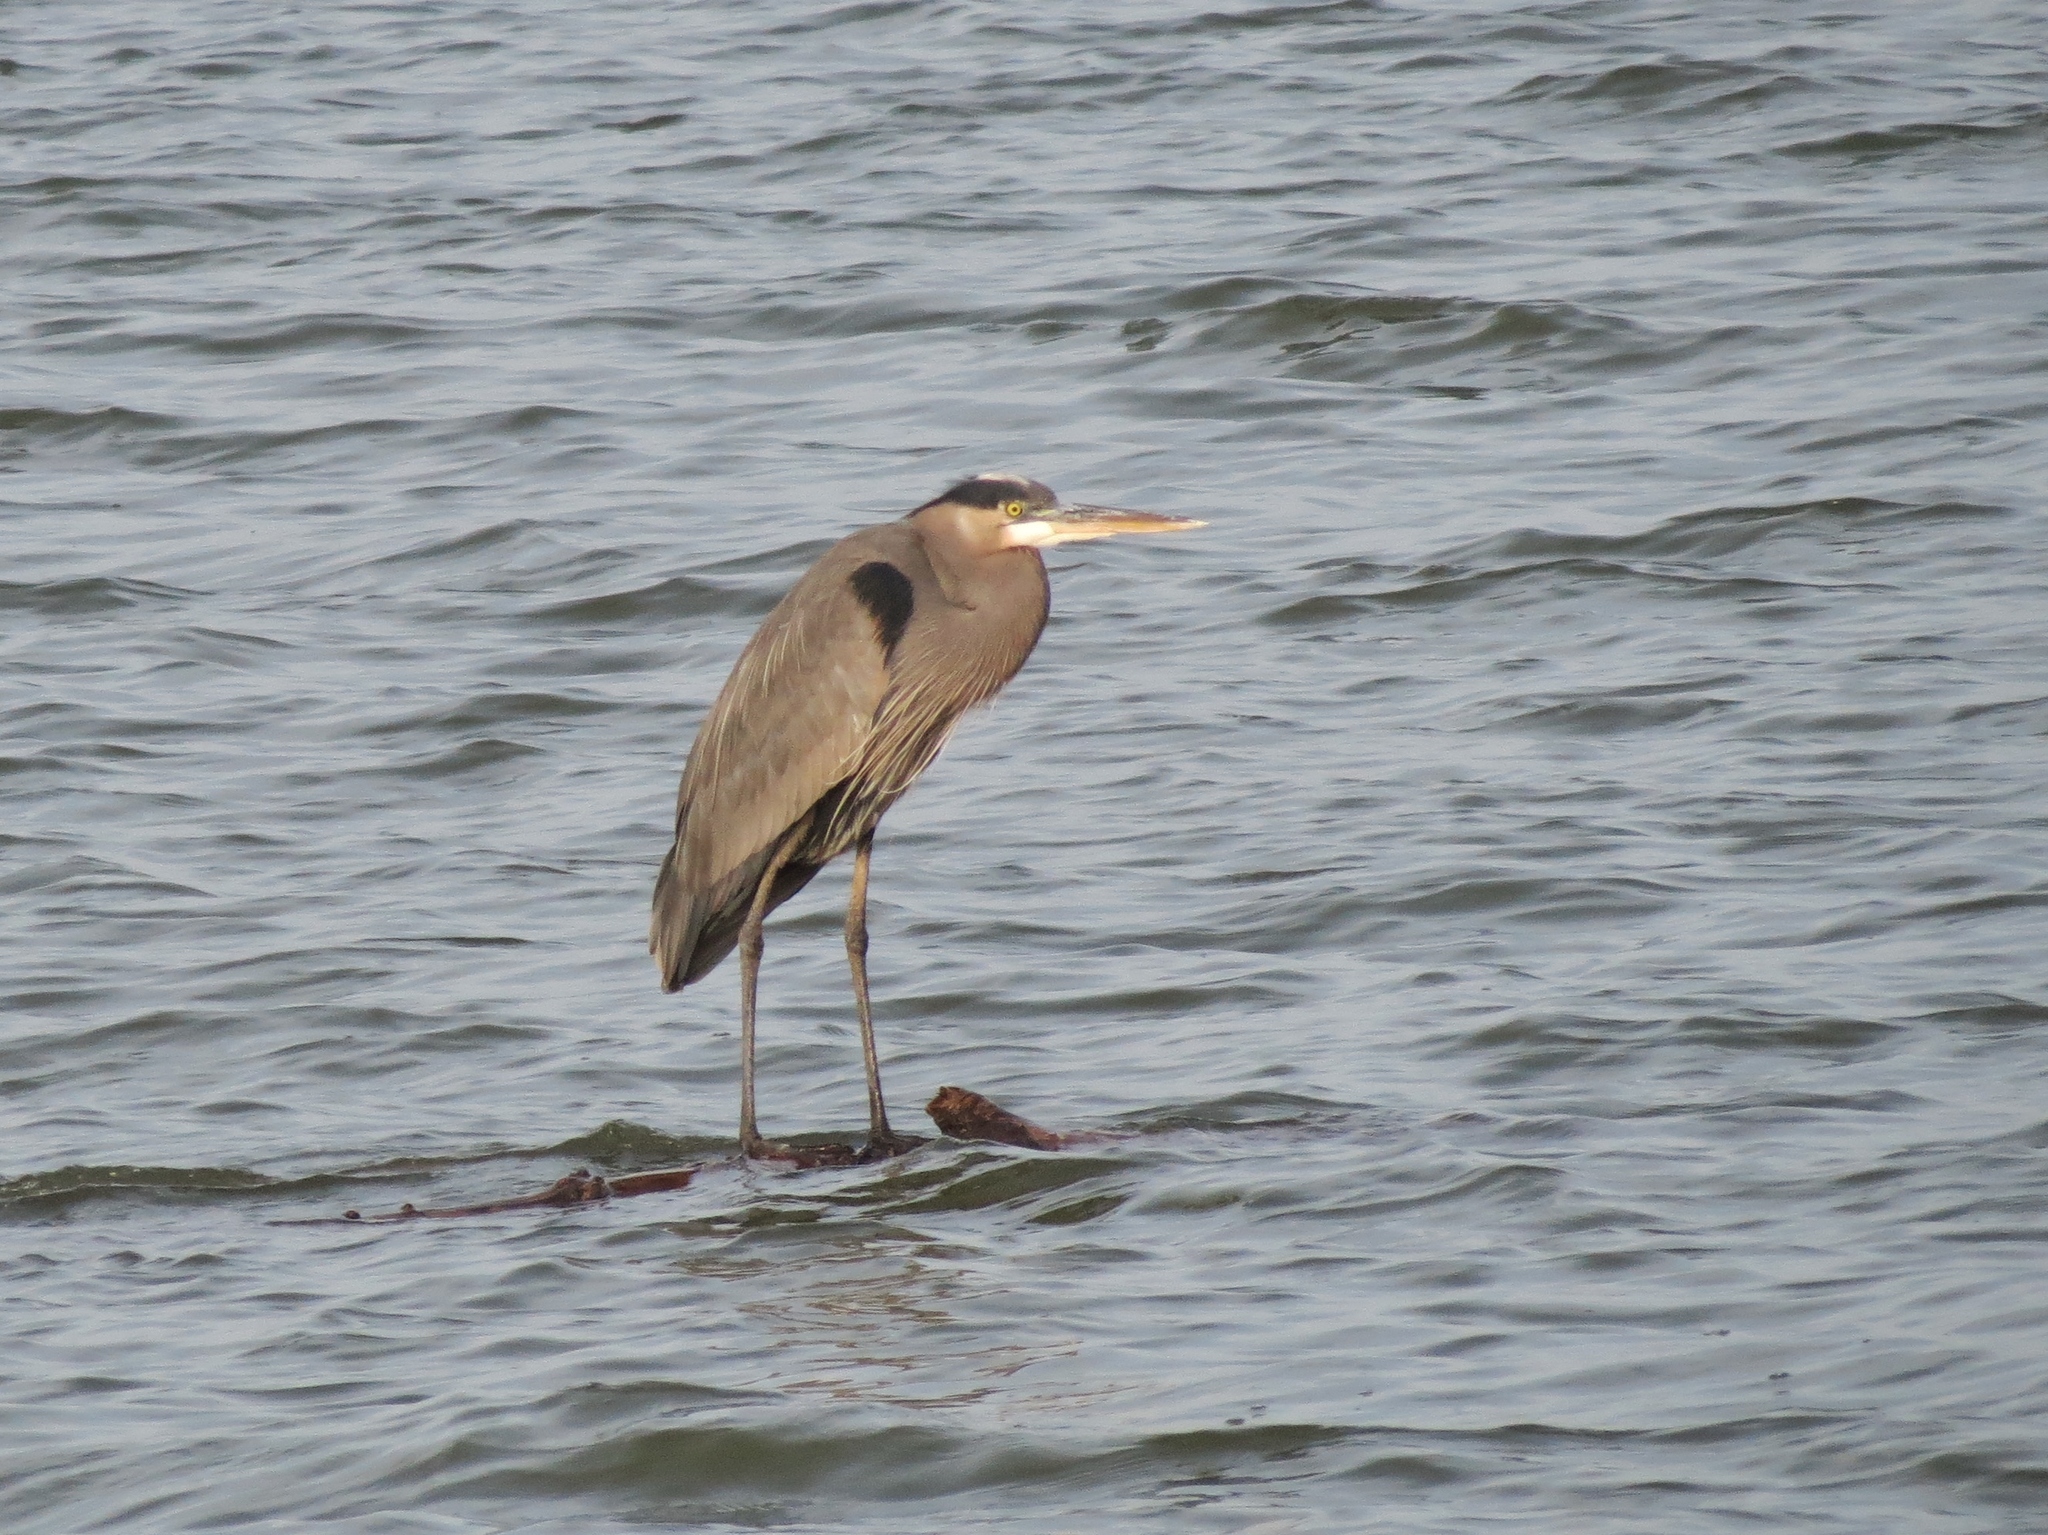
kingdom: Animalia
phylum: Chordata
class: Aves
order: Pelecaniformes
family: Ardeidae
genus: Ardea
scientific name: Ardea herodias
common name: Great blue heron
